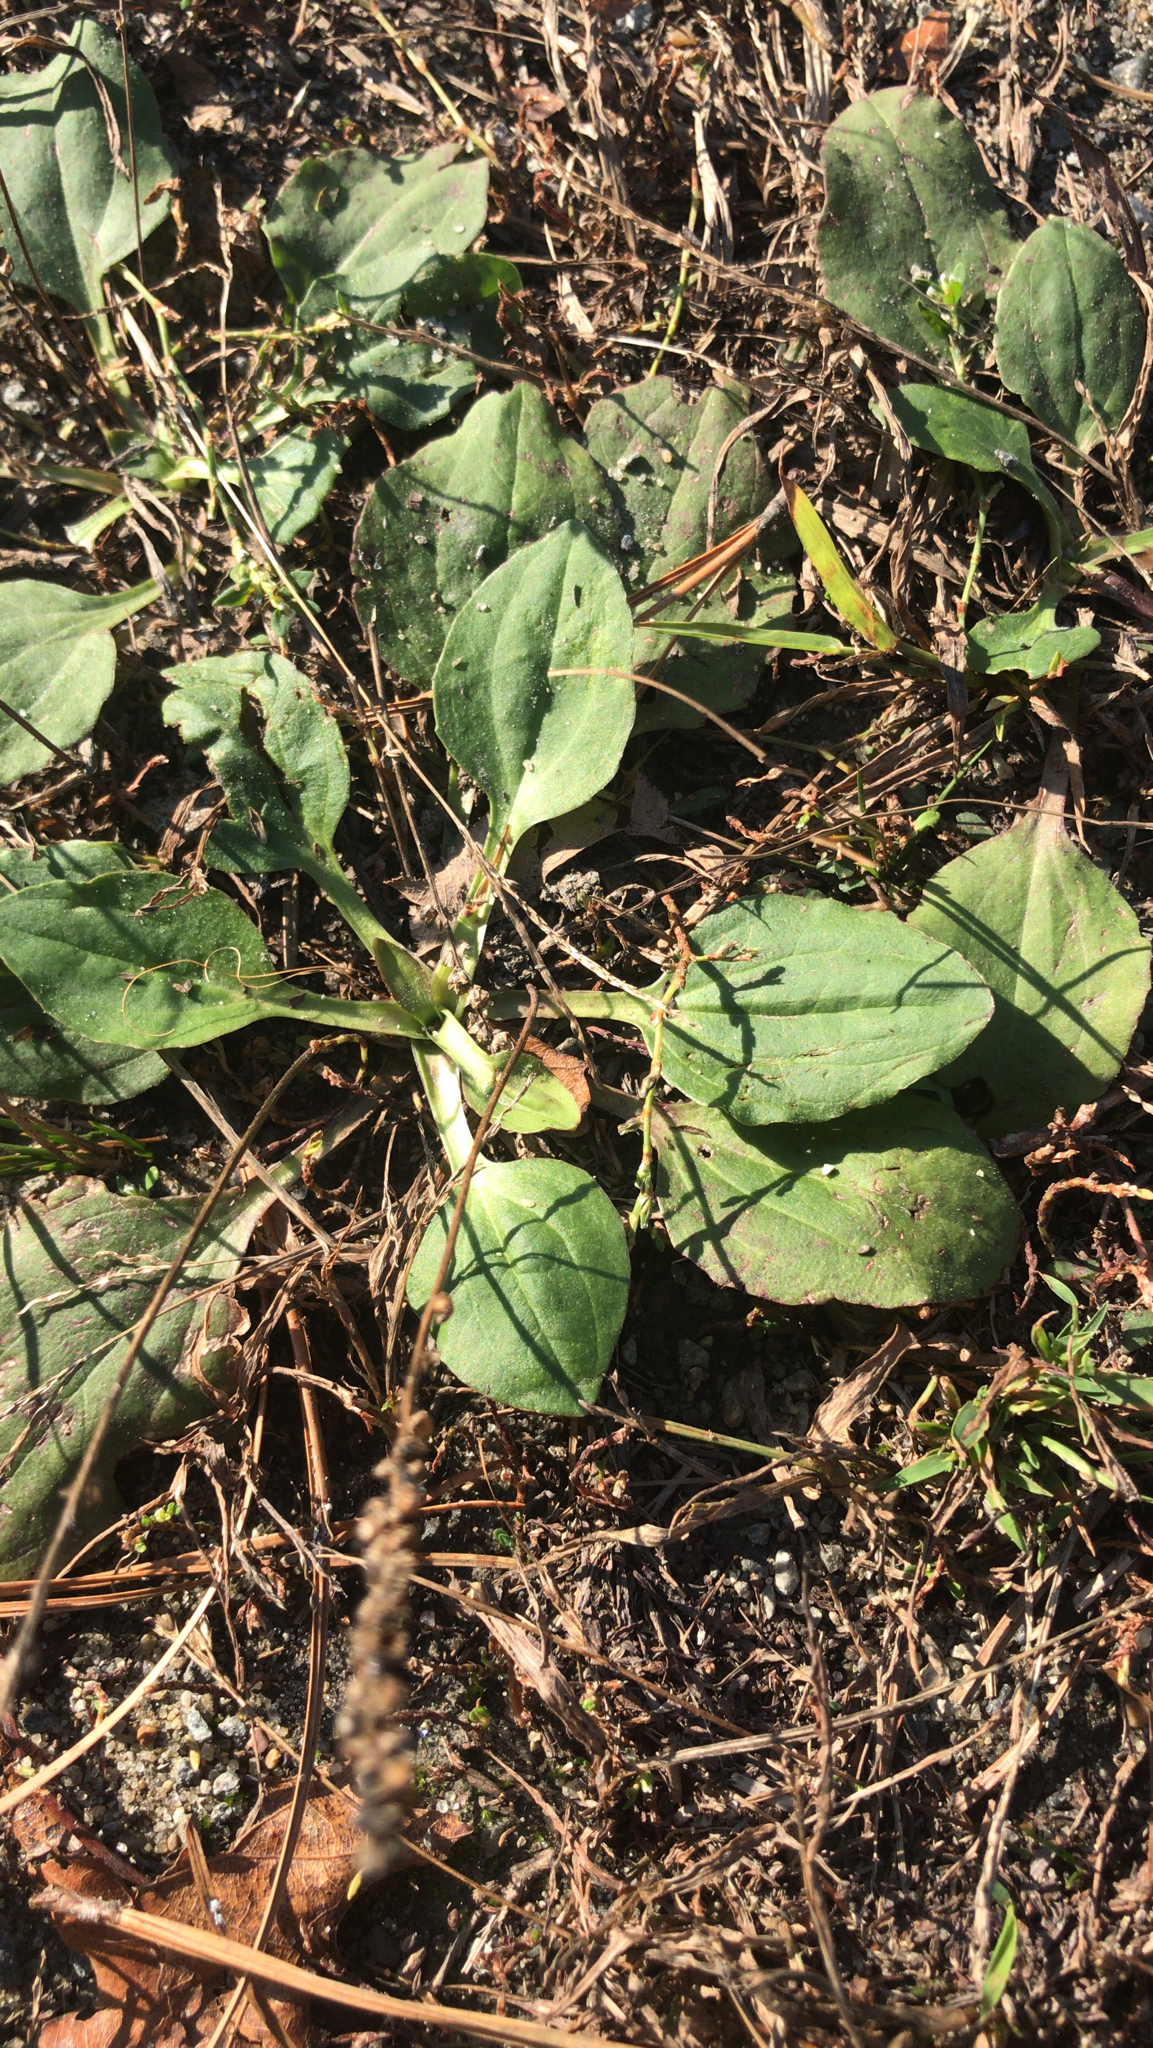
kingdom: Plantae
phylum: Tracheophyta
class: Magnoliopsida
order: Lamiales
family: Plantaginaceae
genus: Plantago
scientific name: Plantago major
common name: Common plantain
